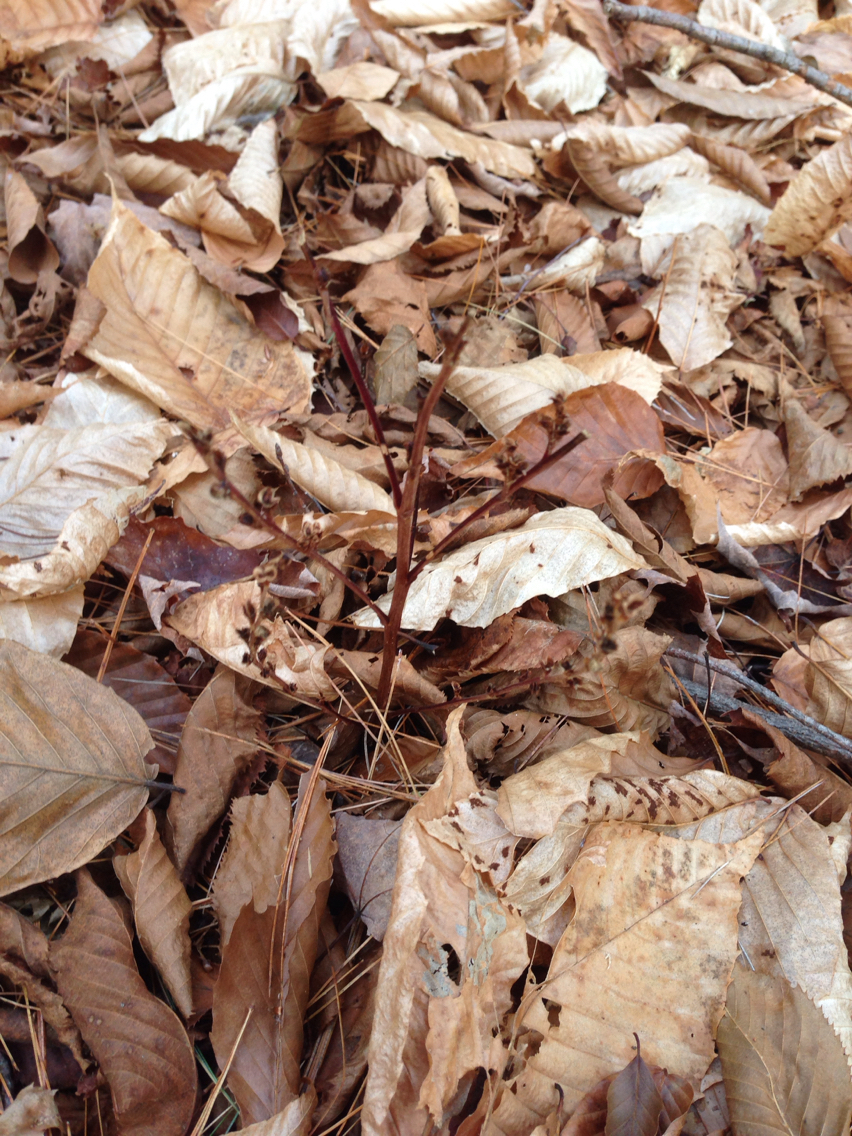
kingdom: Plantae
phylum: Tracheophyta
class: Magnoliopsida
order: Lamiales
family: Orobanchaceae
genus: Epifagus
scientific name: Epifagus virginiana
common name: Beechdrops
